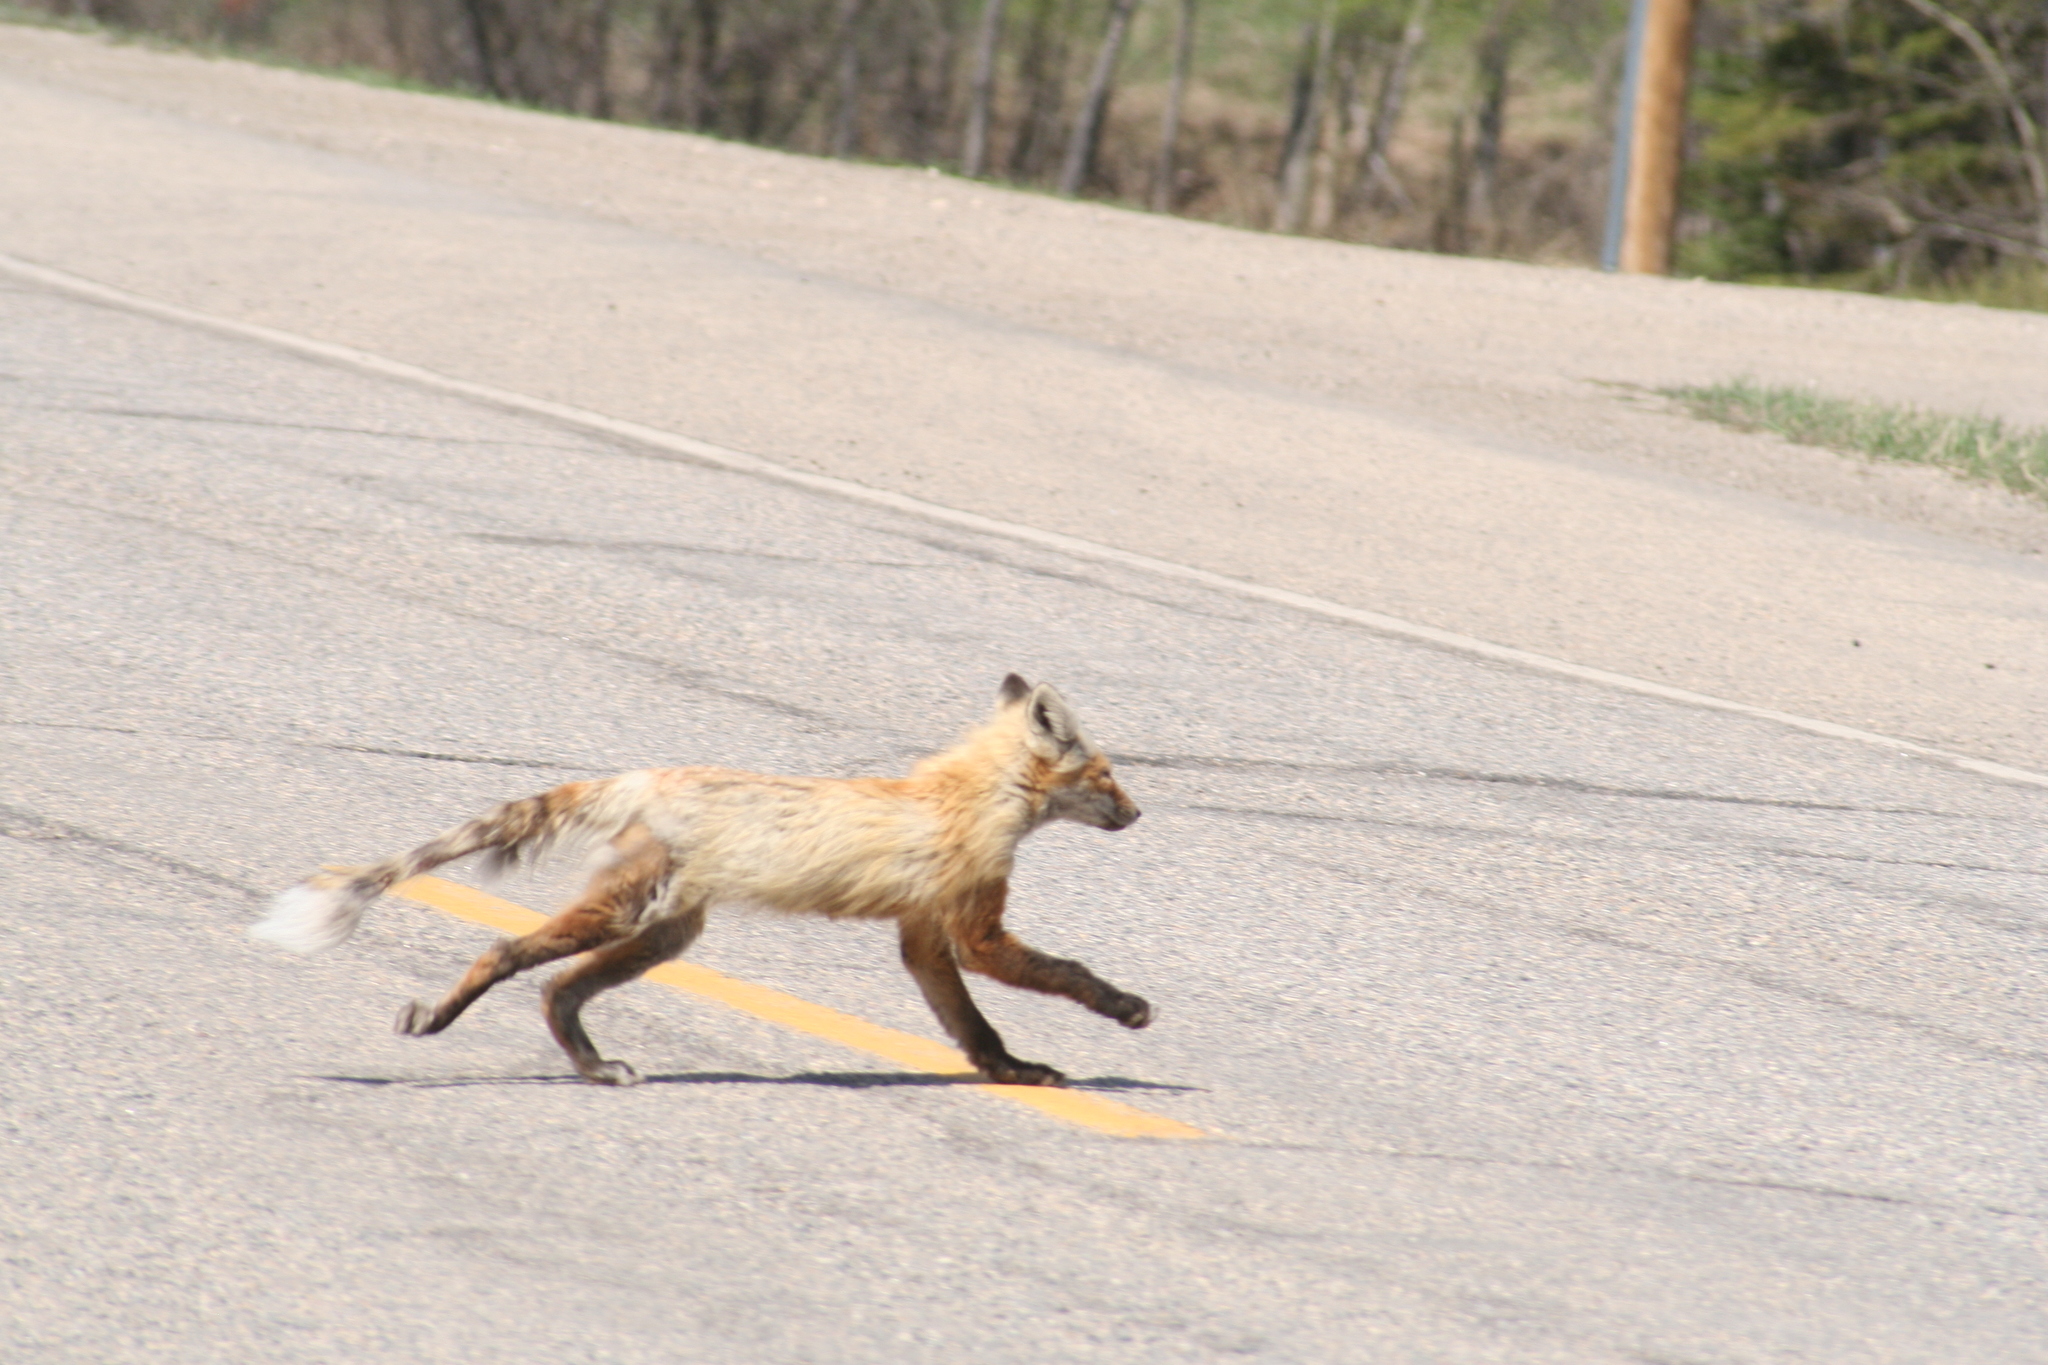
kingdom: Animalia
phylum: Chordata
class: Mammalia
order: Carnivora
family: Canidae
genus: Vulpes
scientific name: Vulpes vulpes
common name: Red fox
